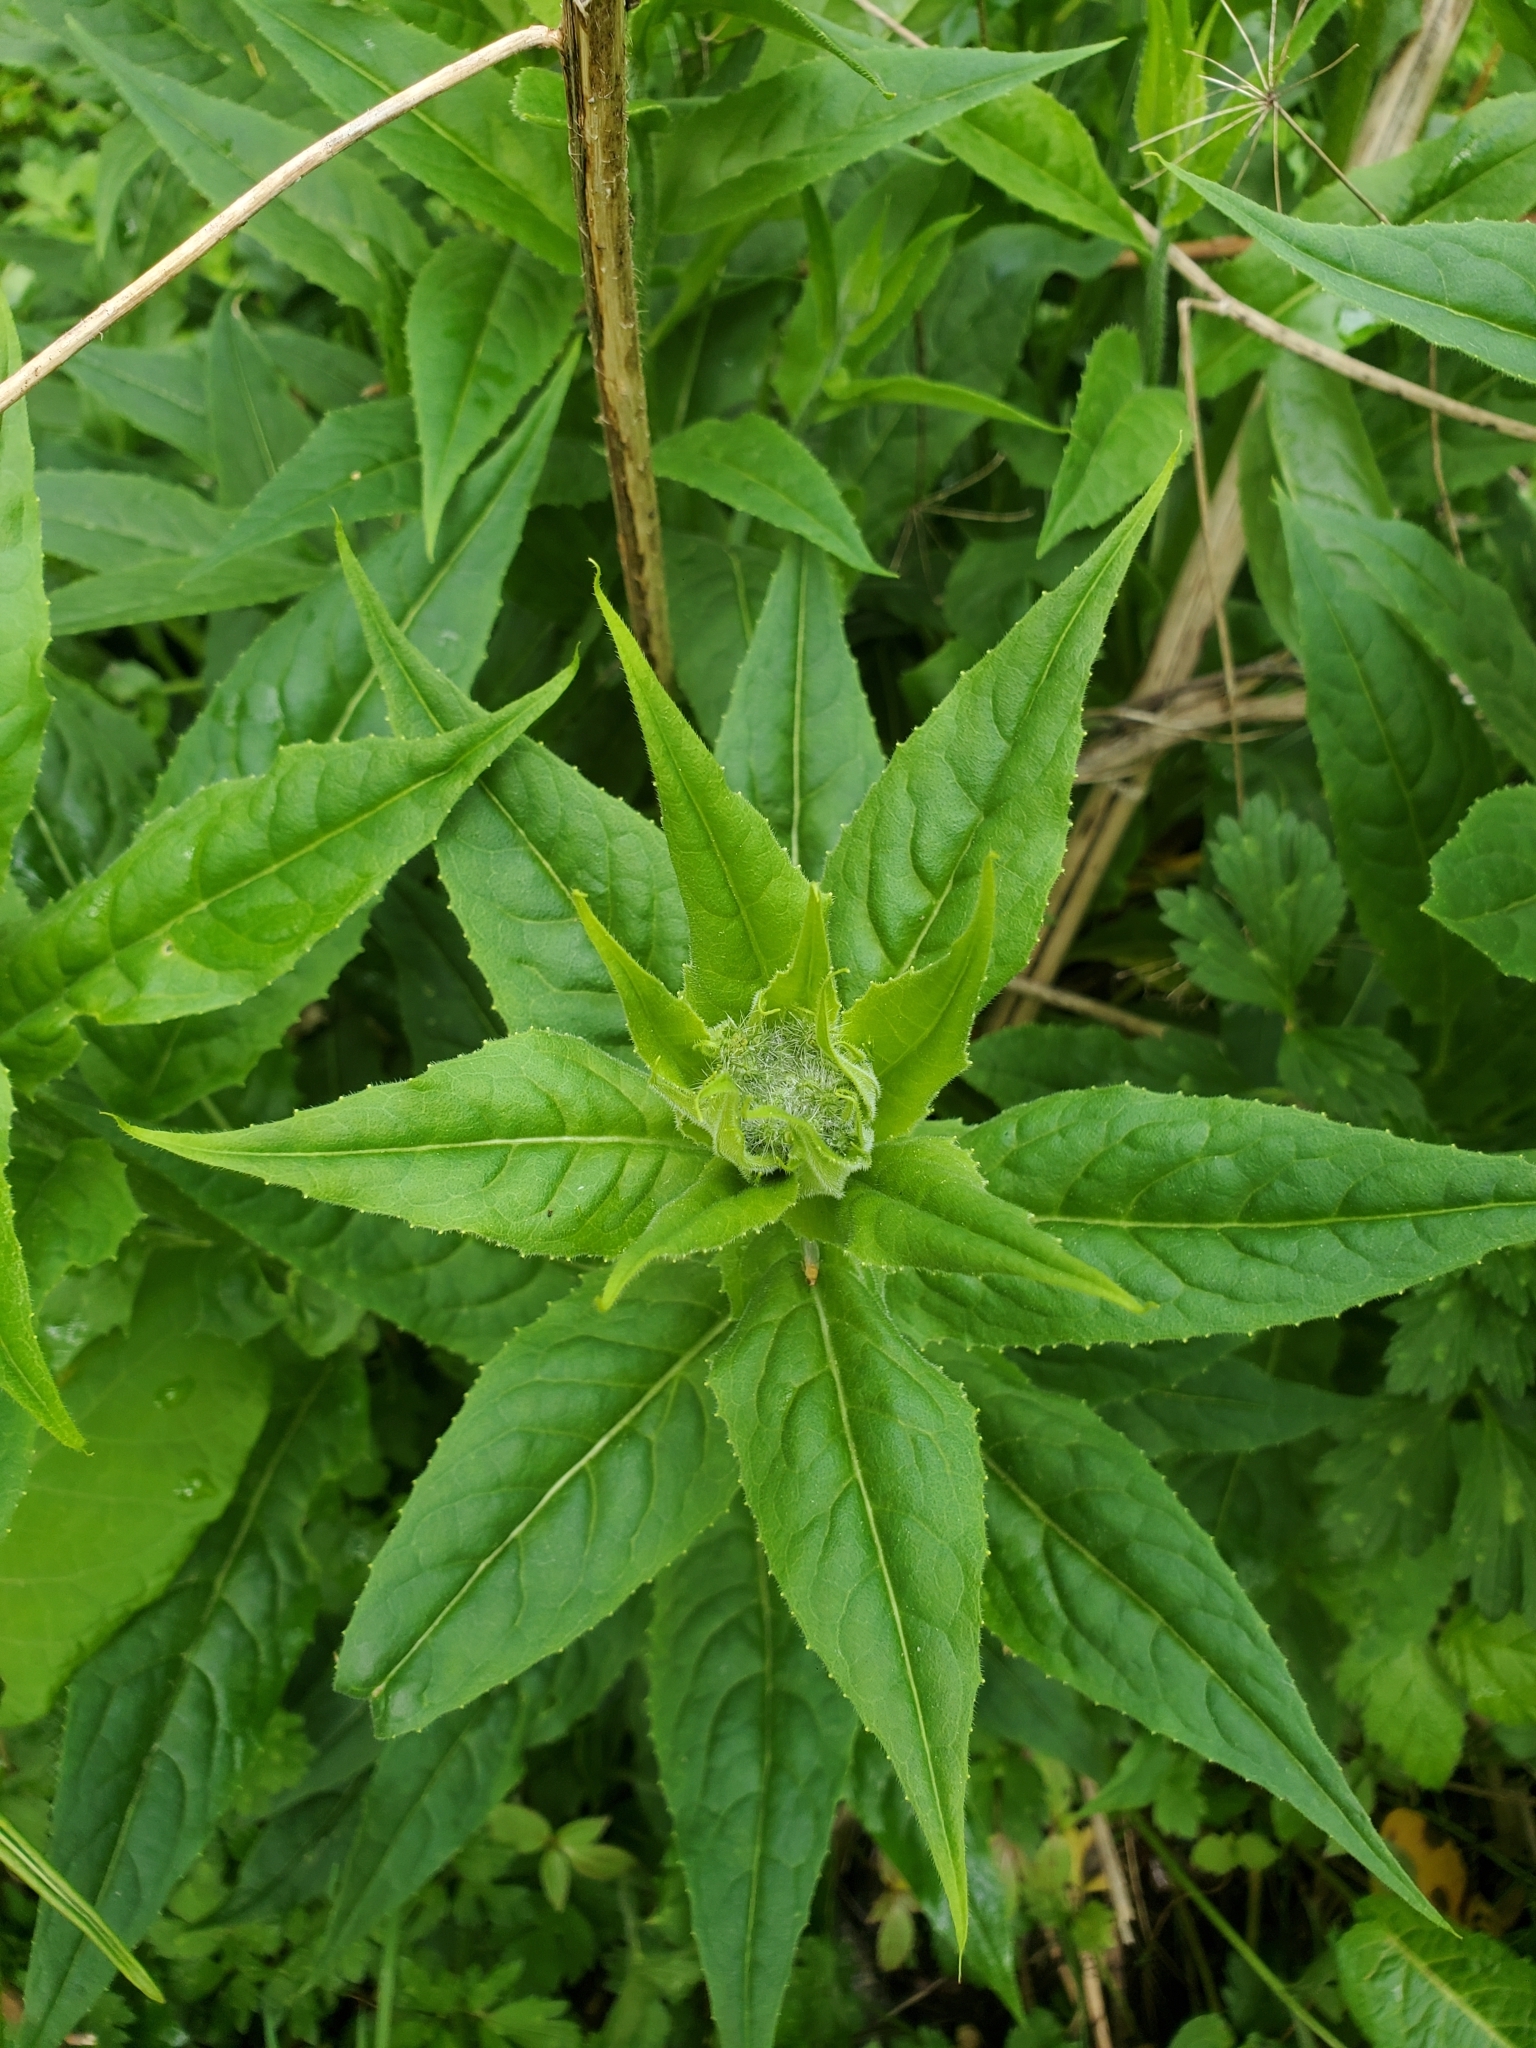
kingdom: Plantae
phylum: Tracheophyta
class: Magnoliopsida
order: Brassicales
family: Brassicaceae
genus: Hesperis
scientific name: Hesperis matronalis
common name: Dame's-violet
